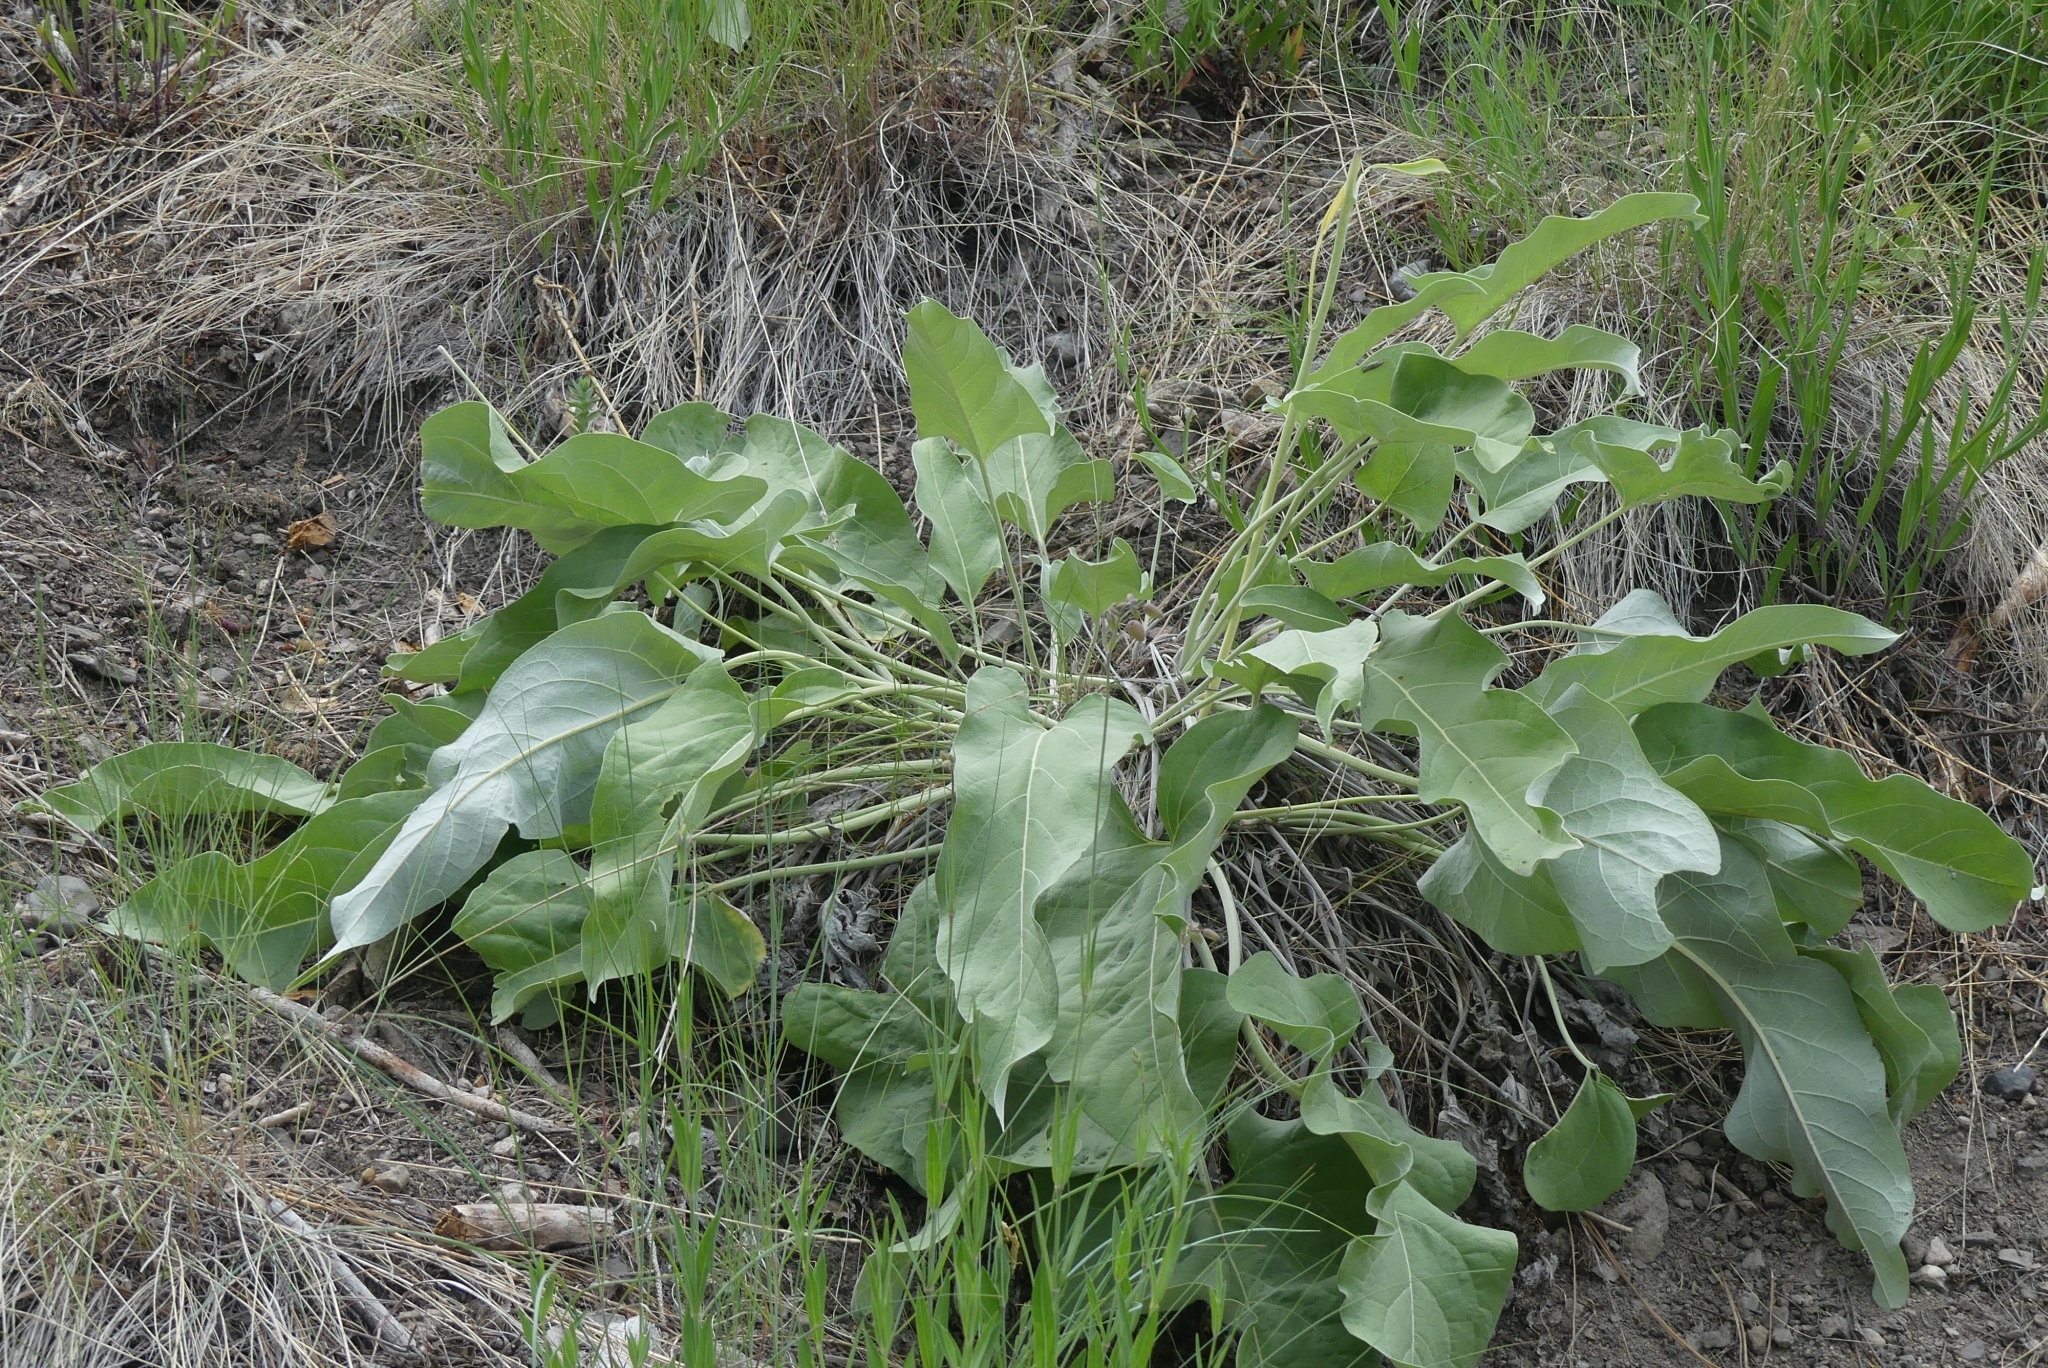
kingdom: Plantae
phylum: Tracheophyta
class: Magnoliopsida
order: Asterales
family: Asteraceae
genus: Wyethia
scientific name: Wyethia sagittata
